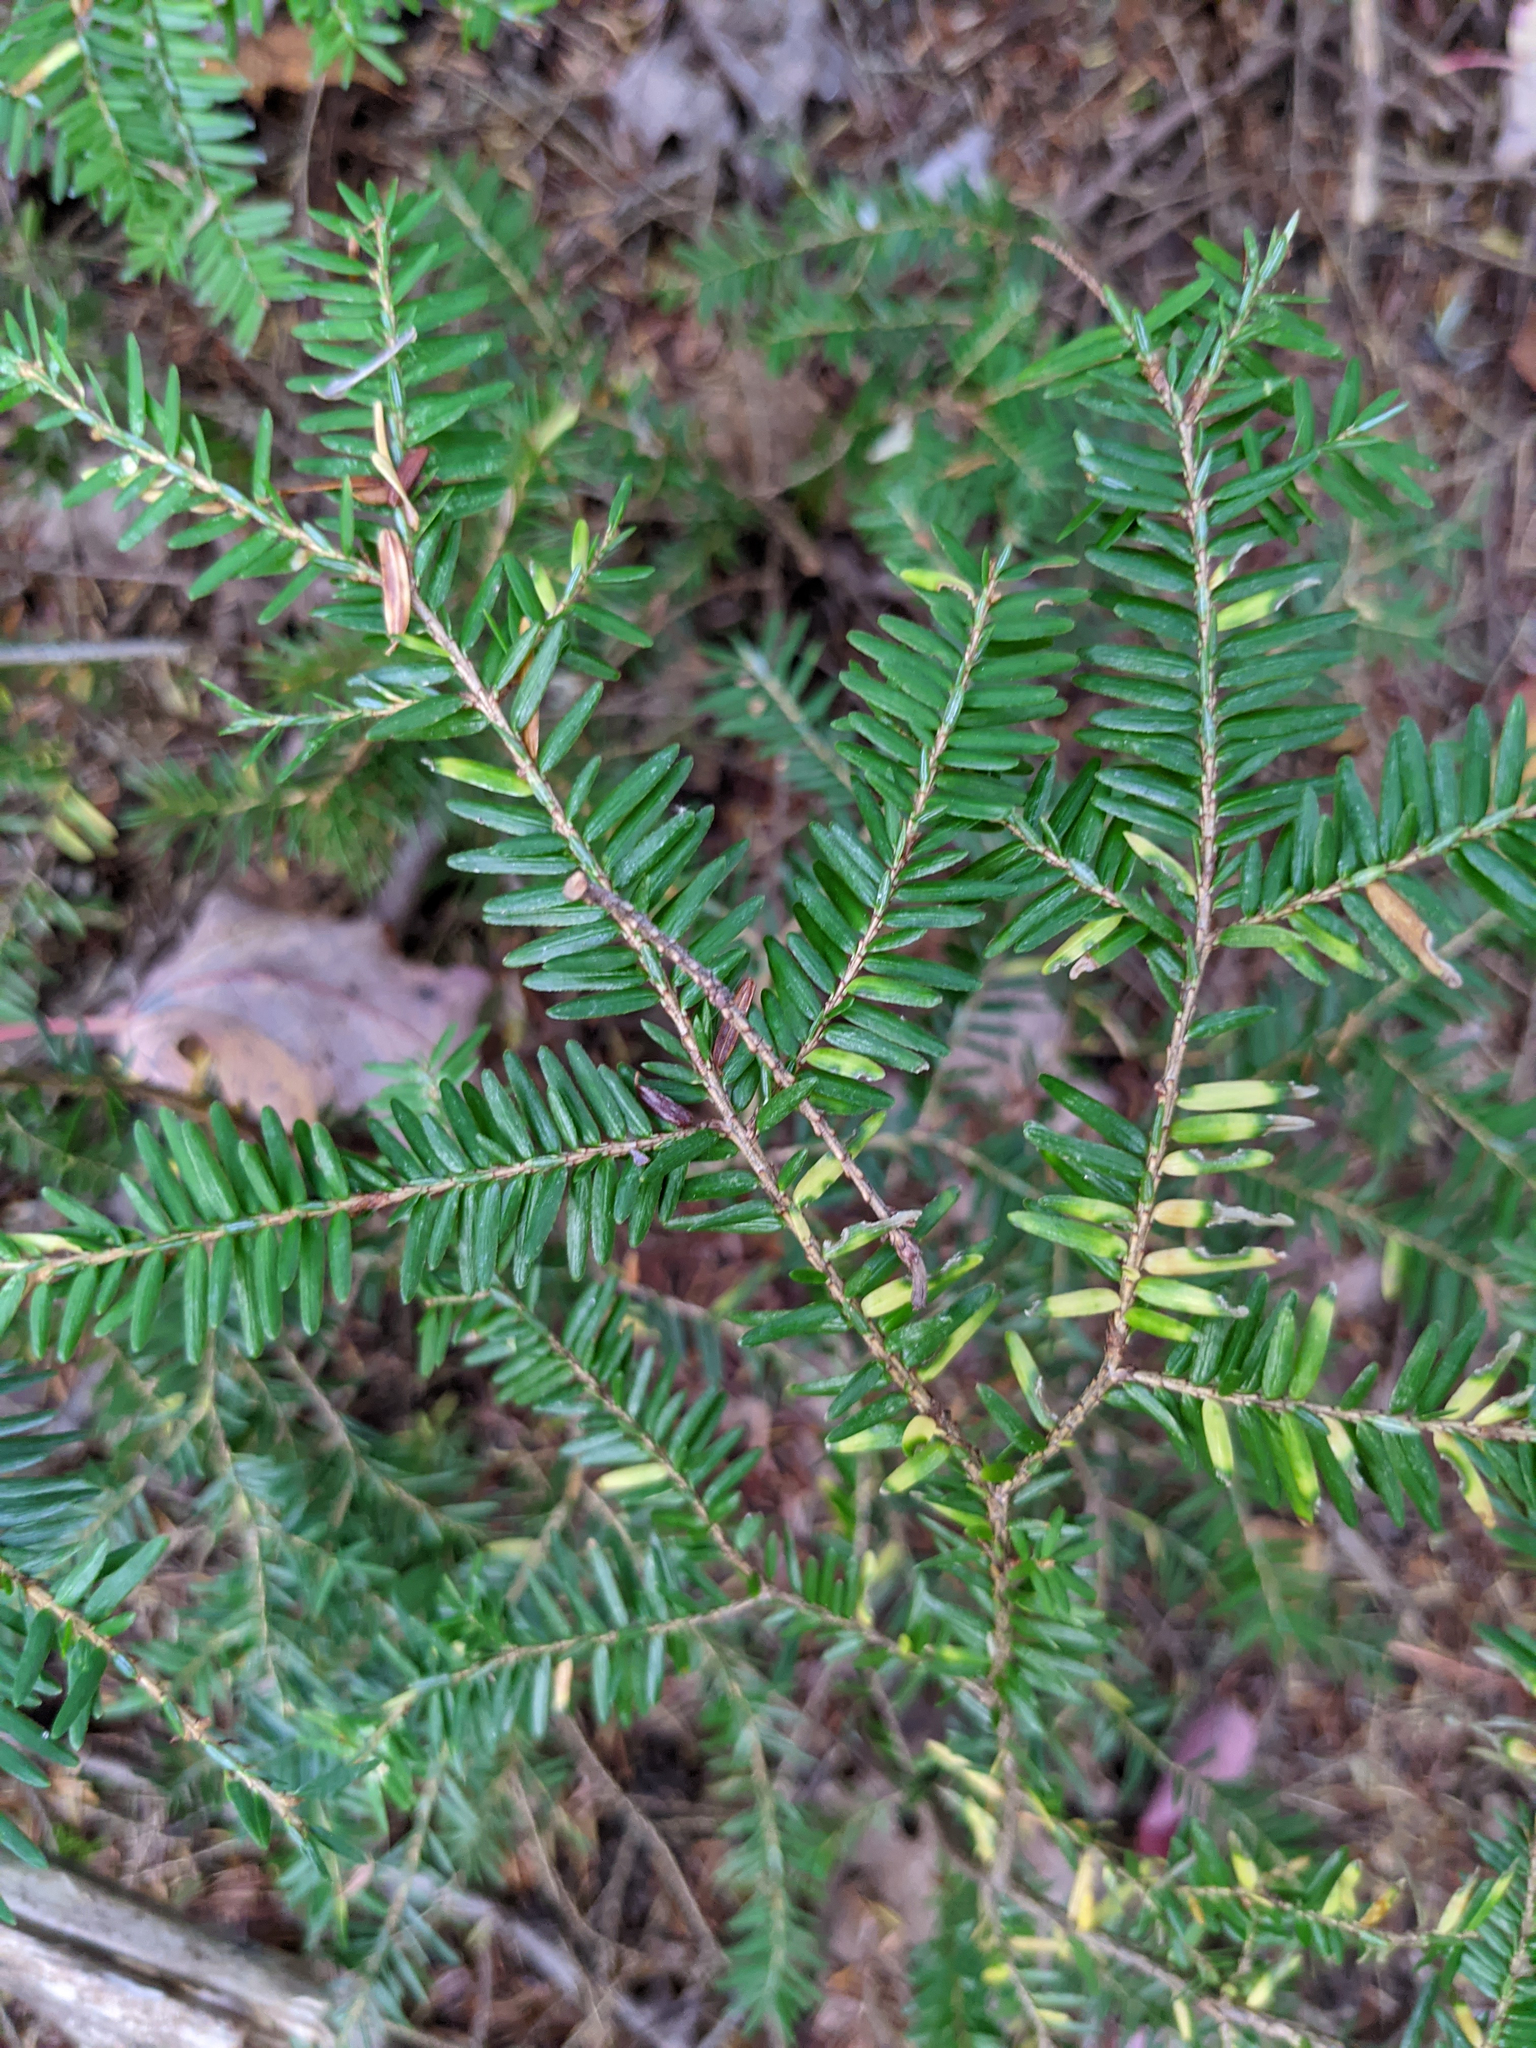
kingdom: Plantae
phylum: Tracheophyta
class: Pinopsida
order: Pinales
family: Pinaceae
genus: Tsuga
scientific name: Tsuga canadensis
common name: Eastern hemlock
